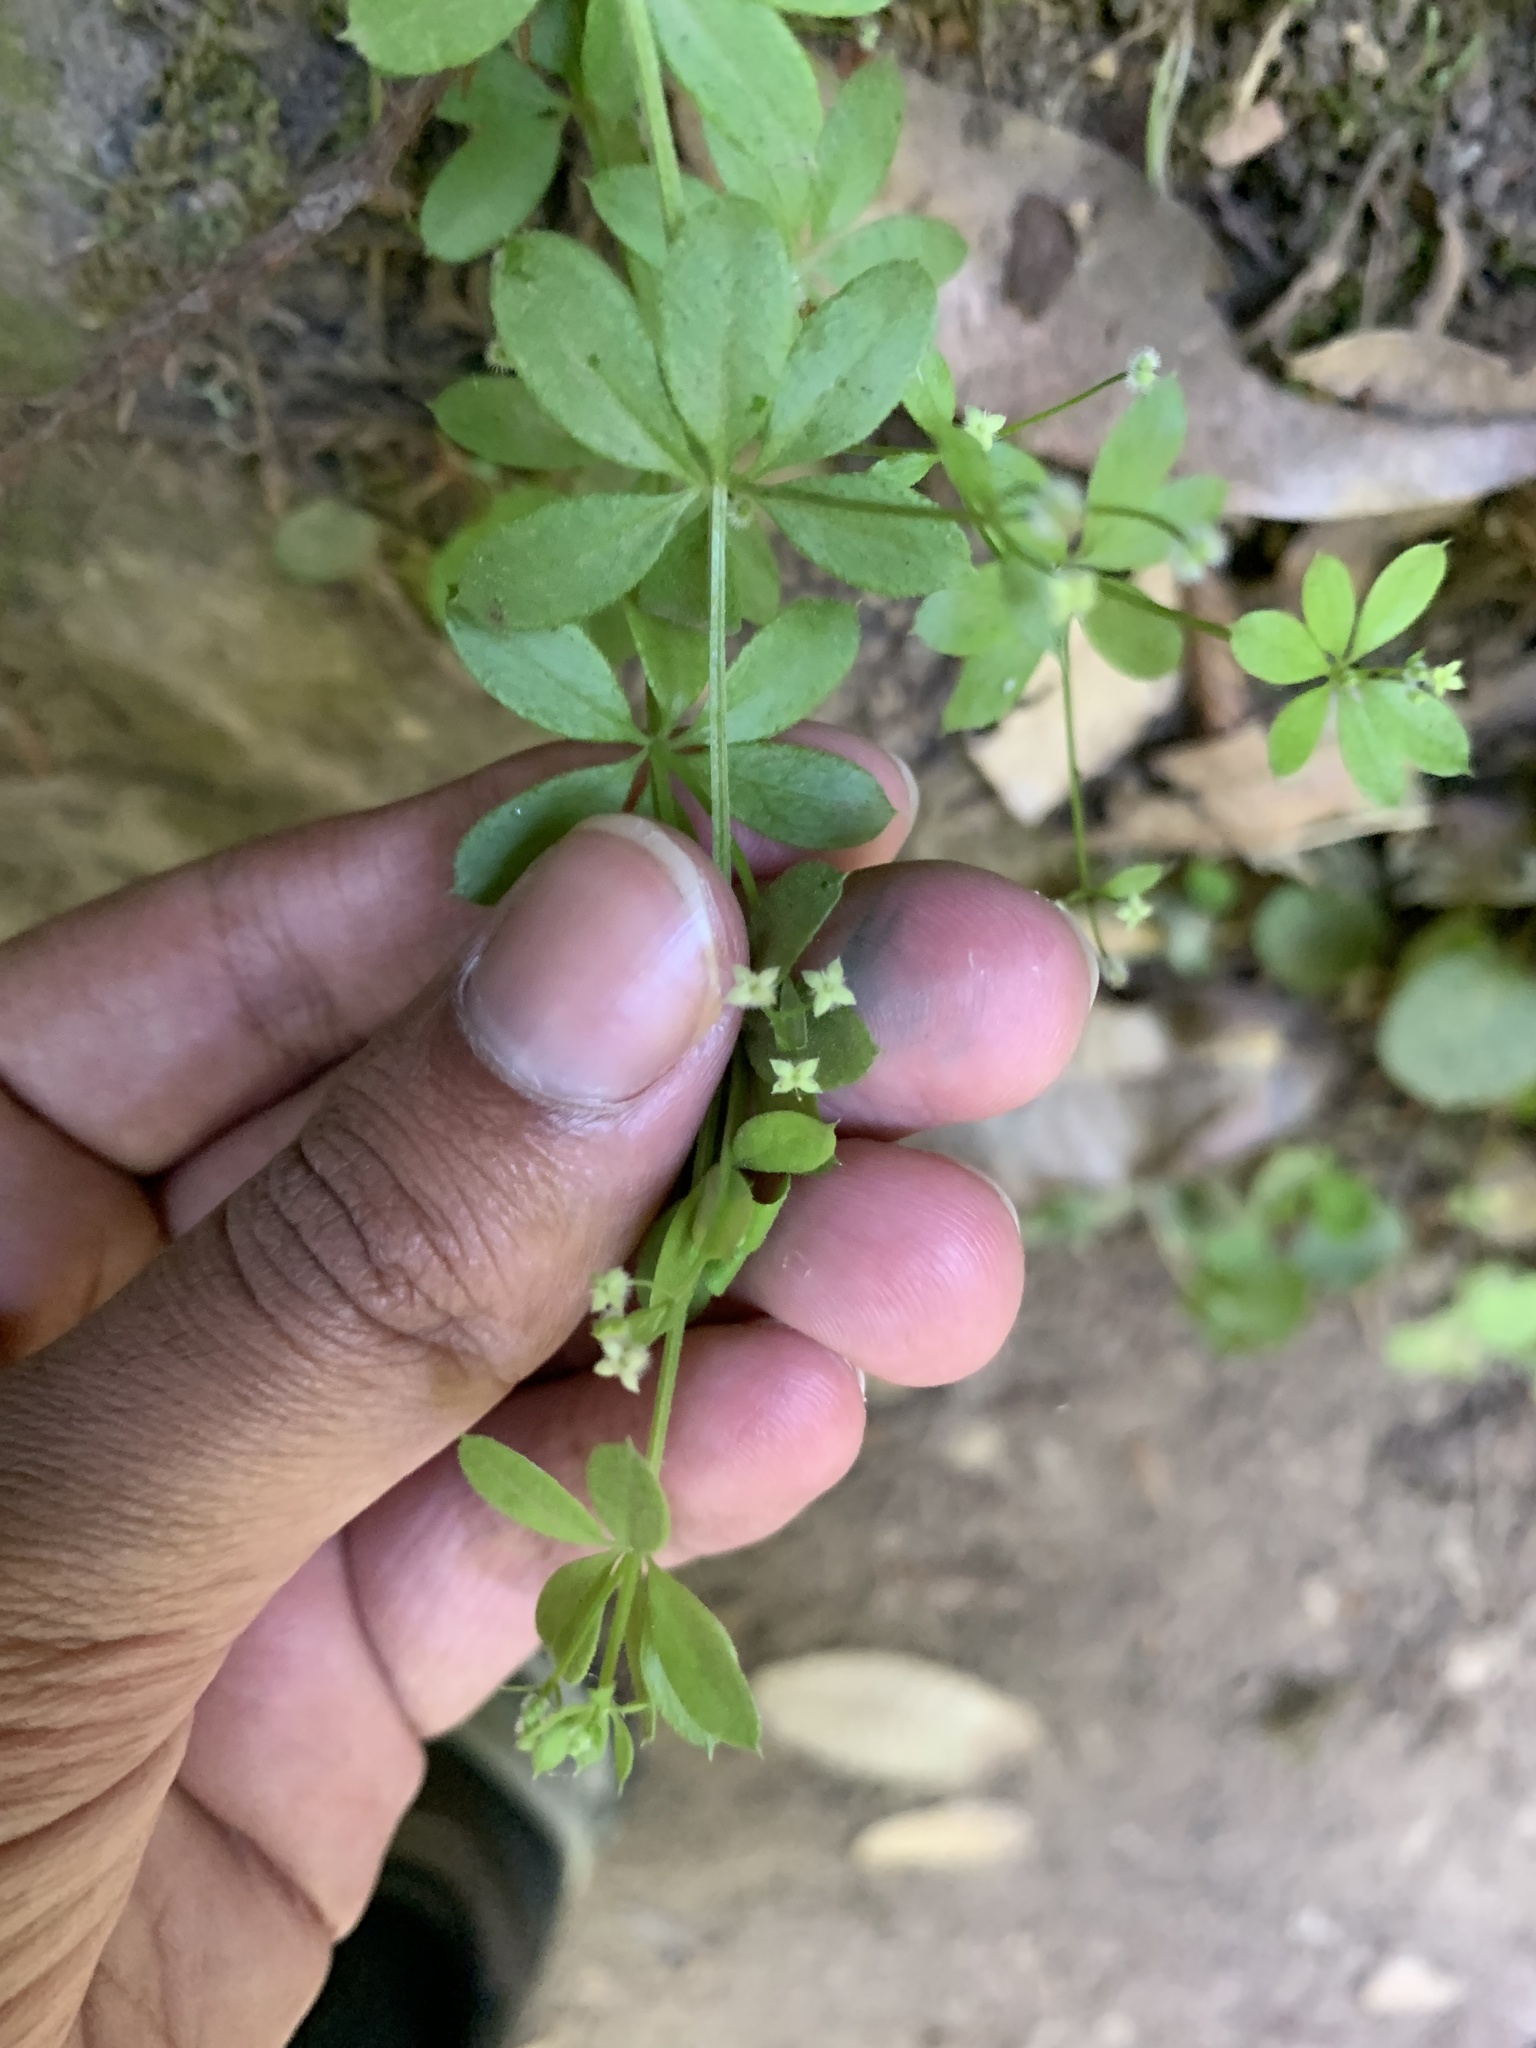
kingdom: Plantae
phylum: Tracheophyta
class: Magnoliopsida
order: Gentianales
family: Rubiaceae
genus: Galium
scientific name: Galium triflorum
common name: Fragrant bedstraw
